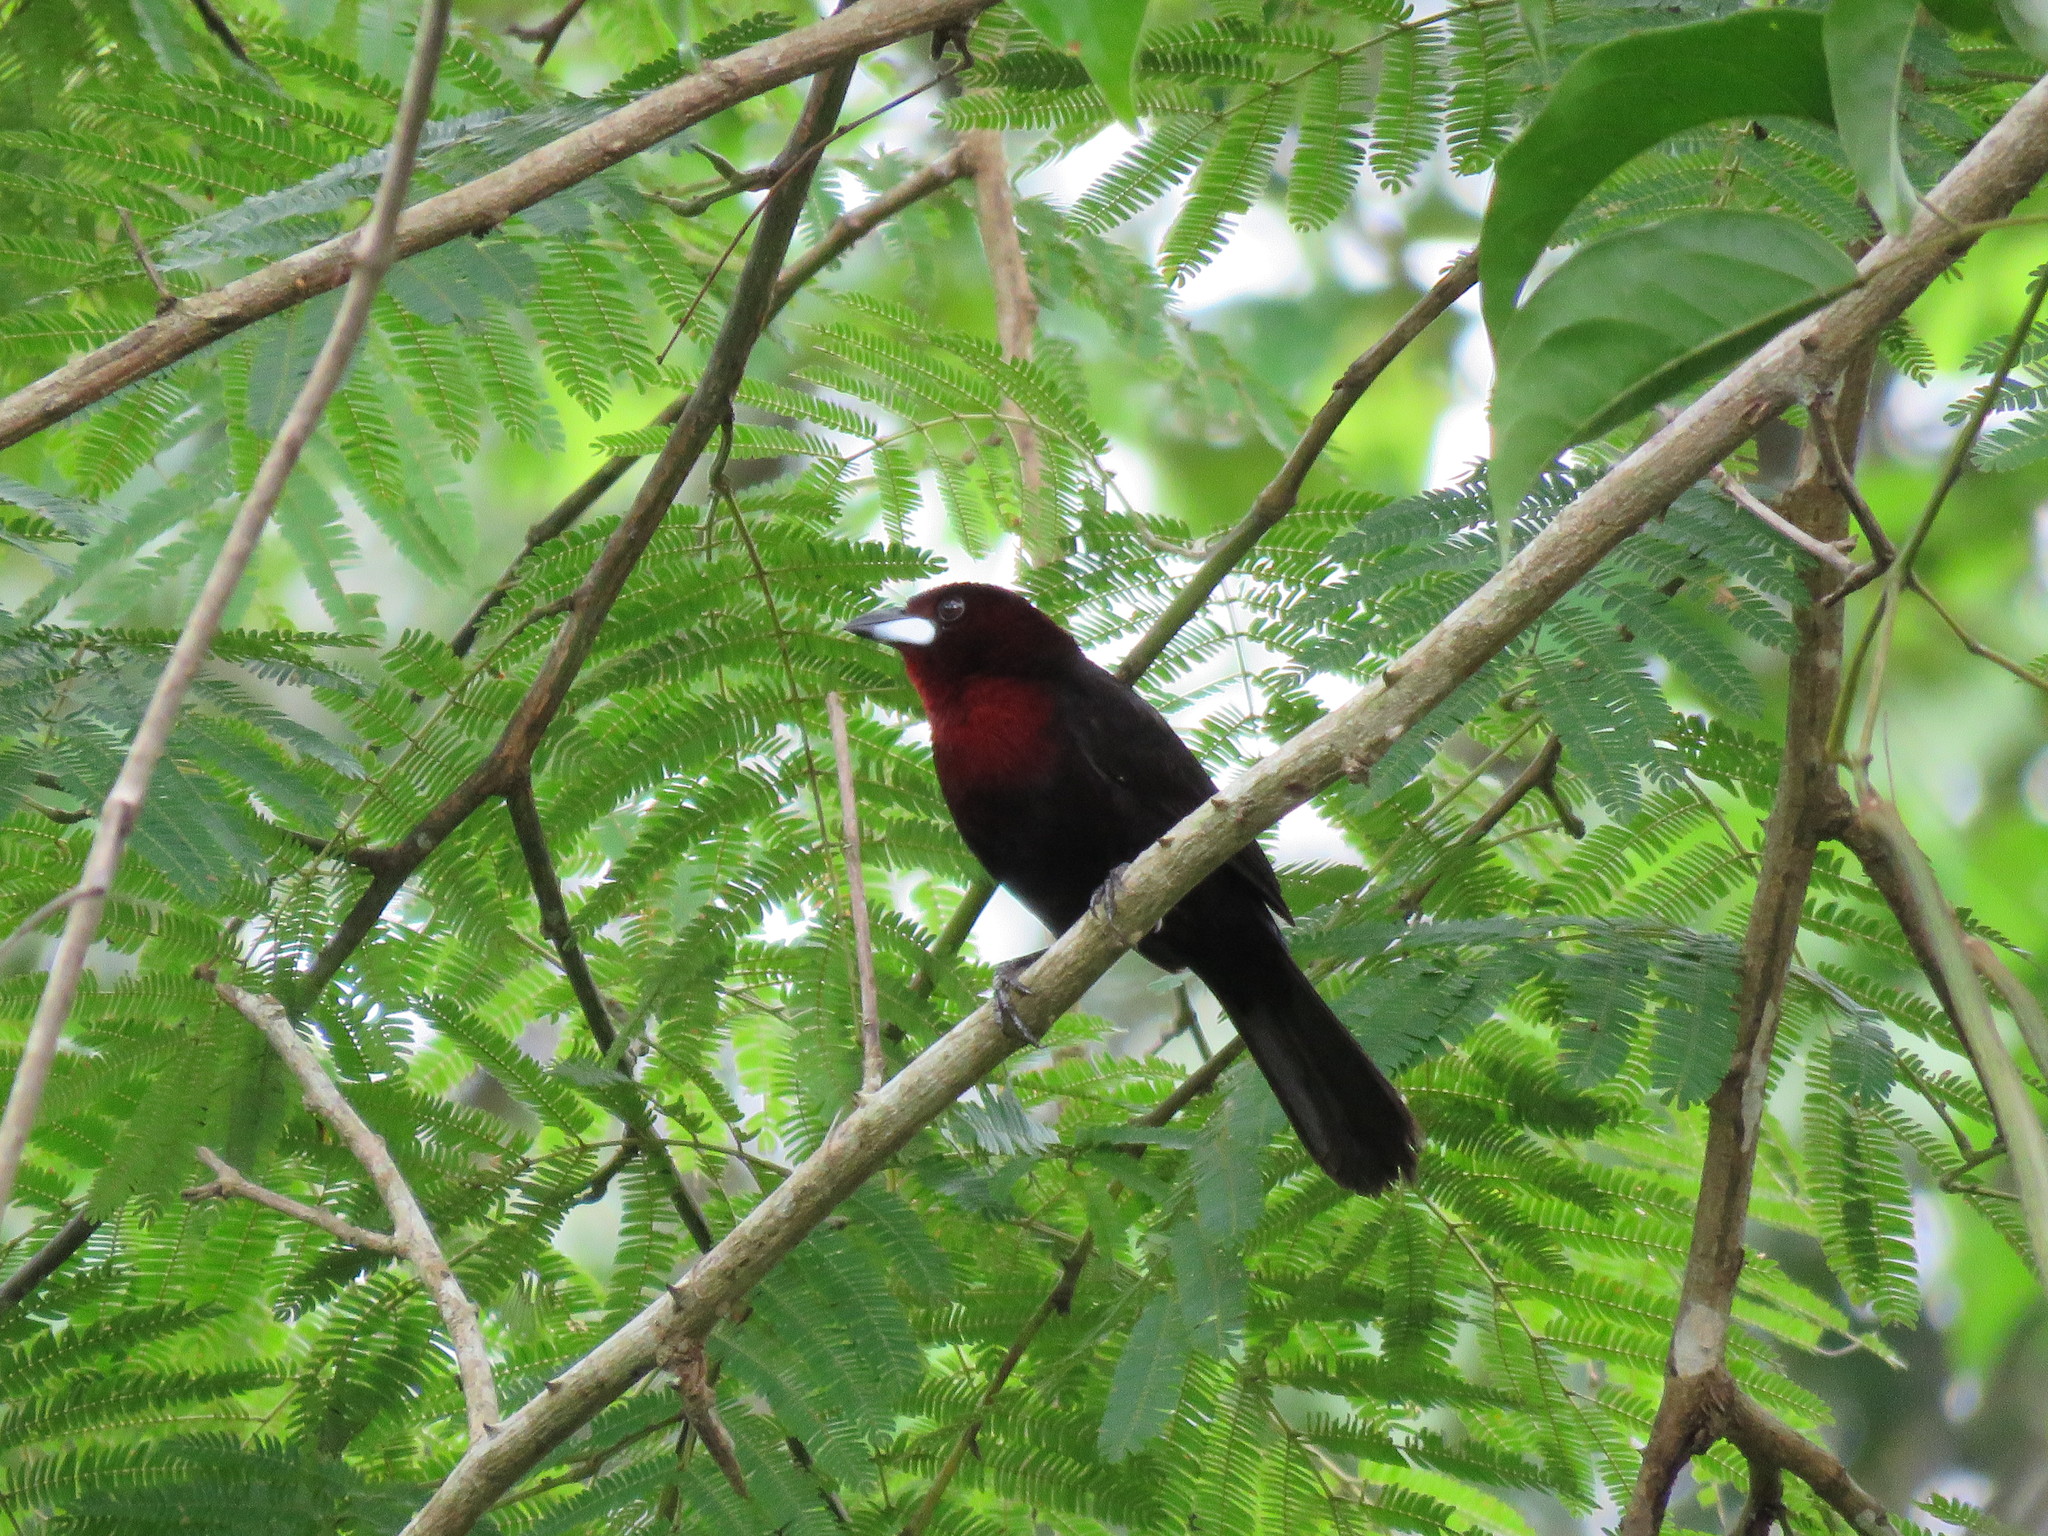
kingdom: Animalia
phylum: Chordata
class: Aves
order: Passeriformes
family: Thraupidae
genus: Ramphocelus
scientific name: Ramphocelus carbo
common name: Silver-beaked tanager
